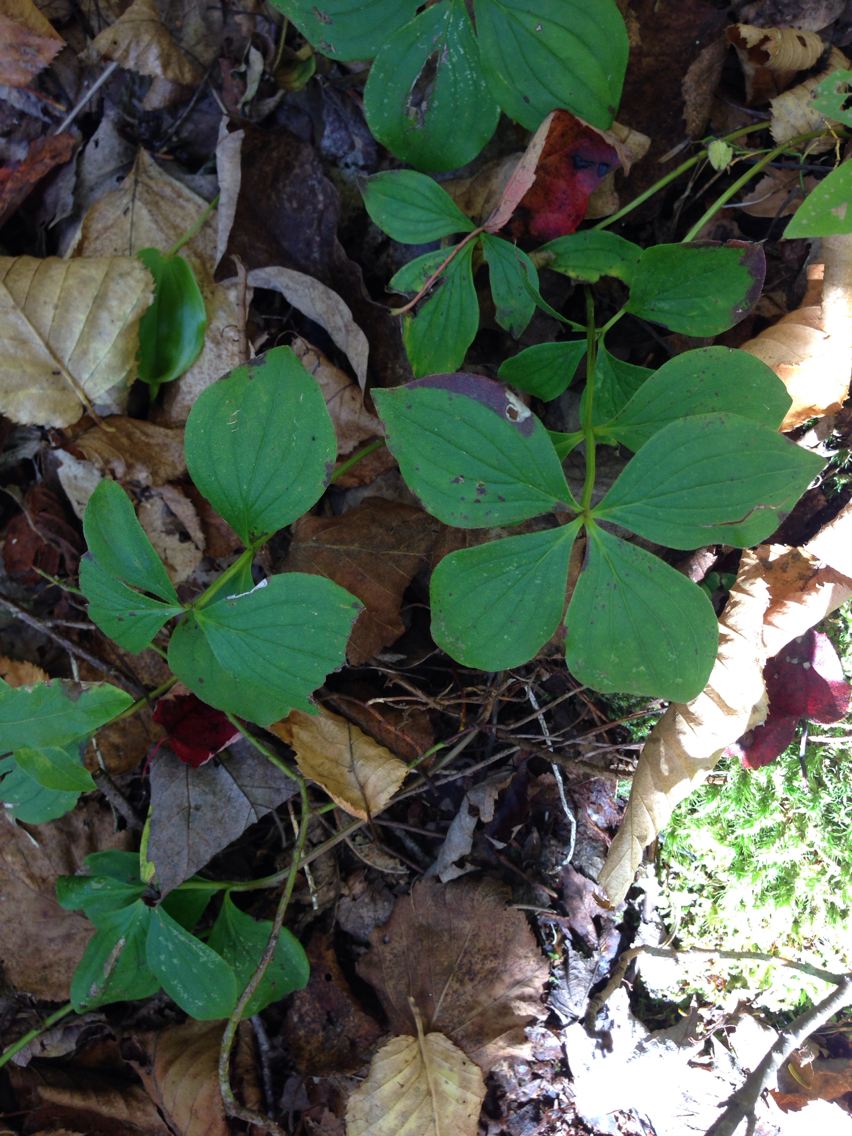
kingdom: Plantae
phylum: Tracheophyta
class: Magnoliopsida
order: Cornales
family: Cornaceae
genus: Cornus
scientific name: Cornus canadensis
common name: Creeping dogwood
